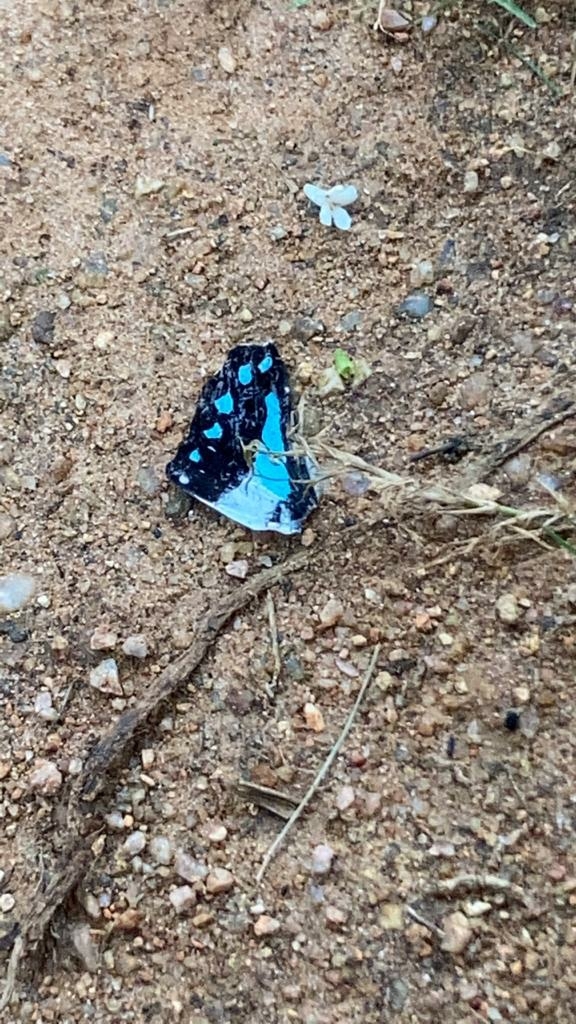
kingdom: Animalia
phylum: Arthropoda
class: Insecta
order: Lepidoptera
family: Papilionidae
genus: Graphium
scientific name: Graphium doson
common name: Common jay
